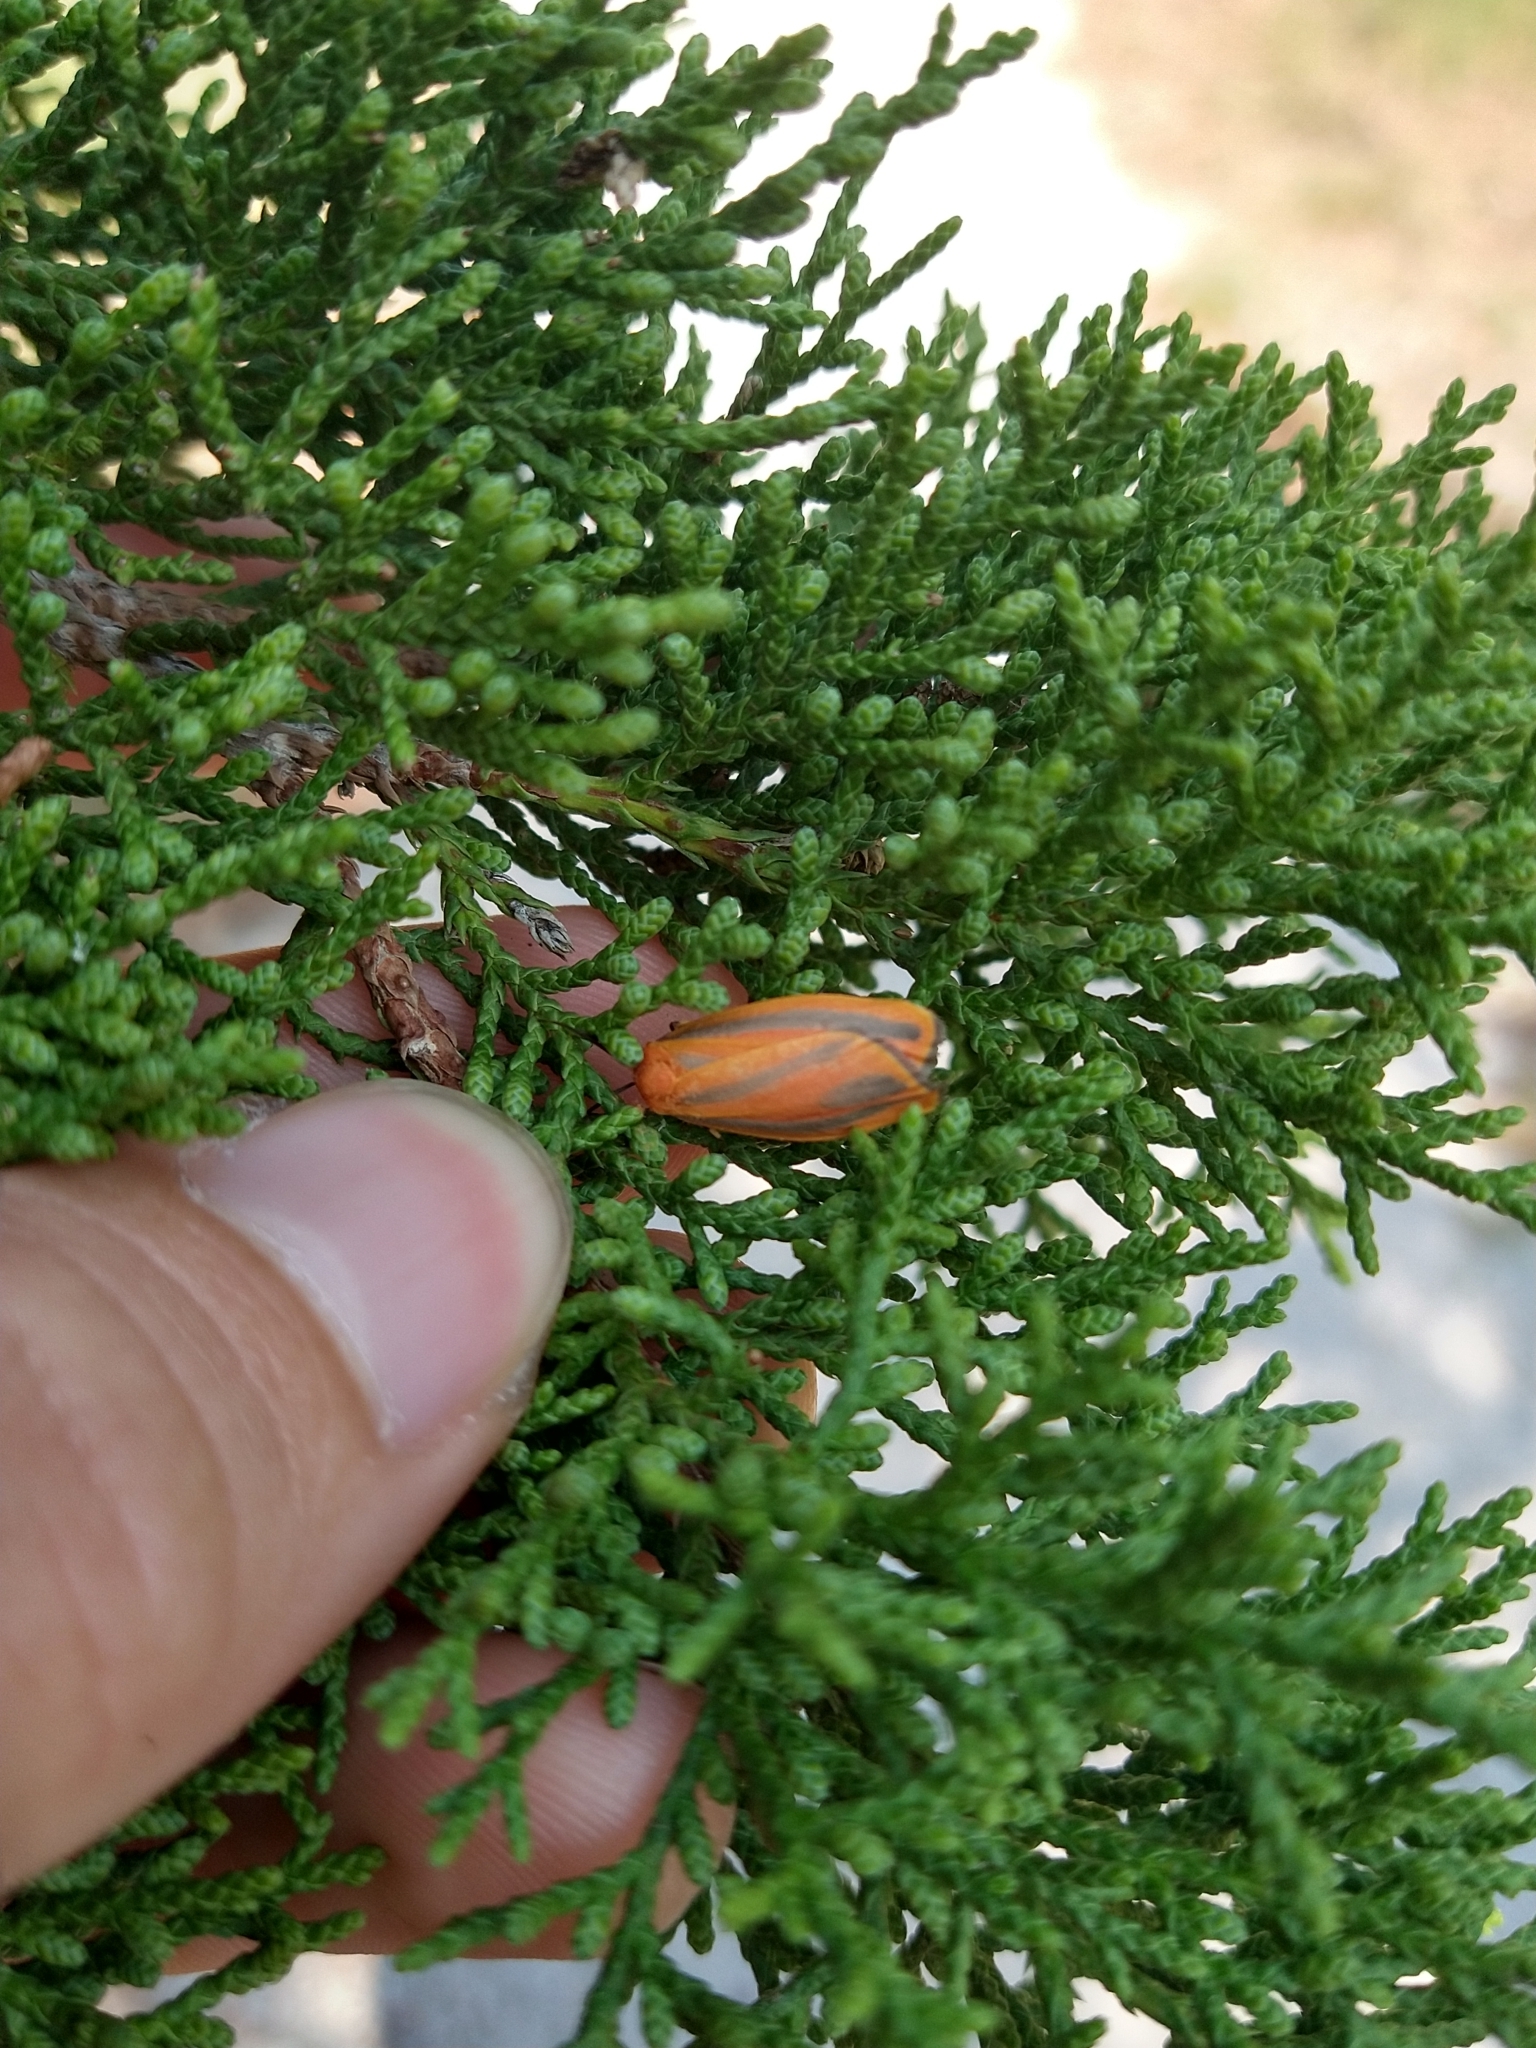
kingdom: Animalia
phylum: Arthropoda
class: Insecta
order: Lepidoptera
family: Erebidae
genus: Hypoprepia
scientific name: Hypoprepia miniata
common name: Scarlet-winged lichen moth
